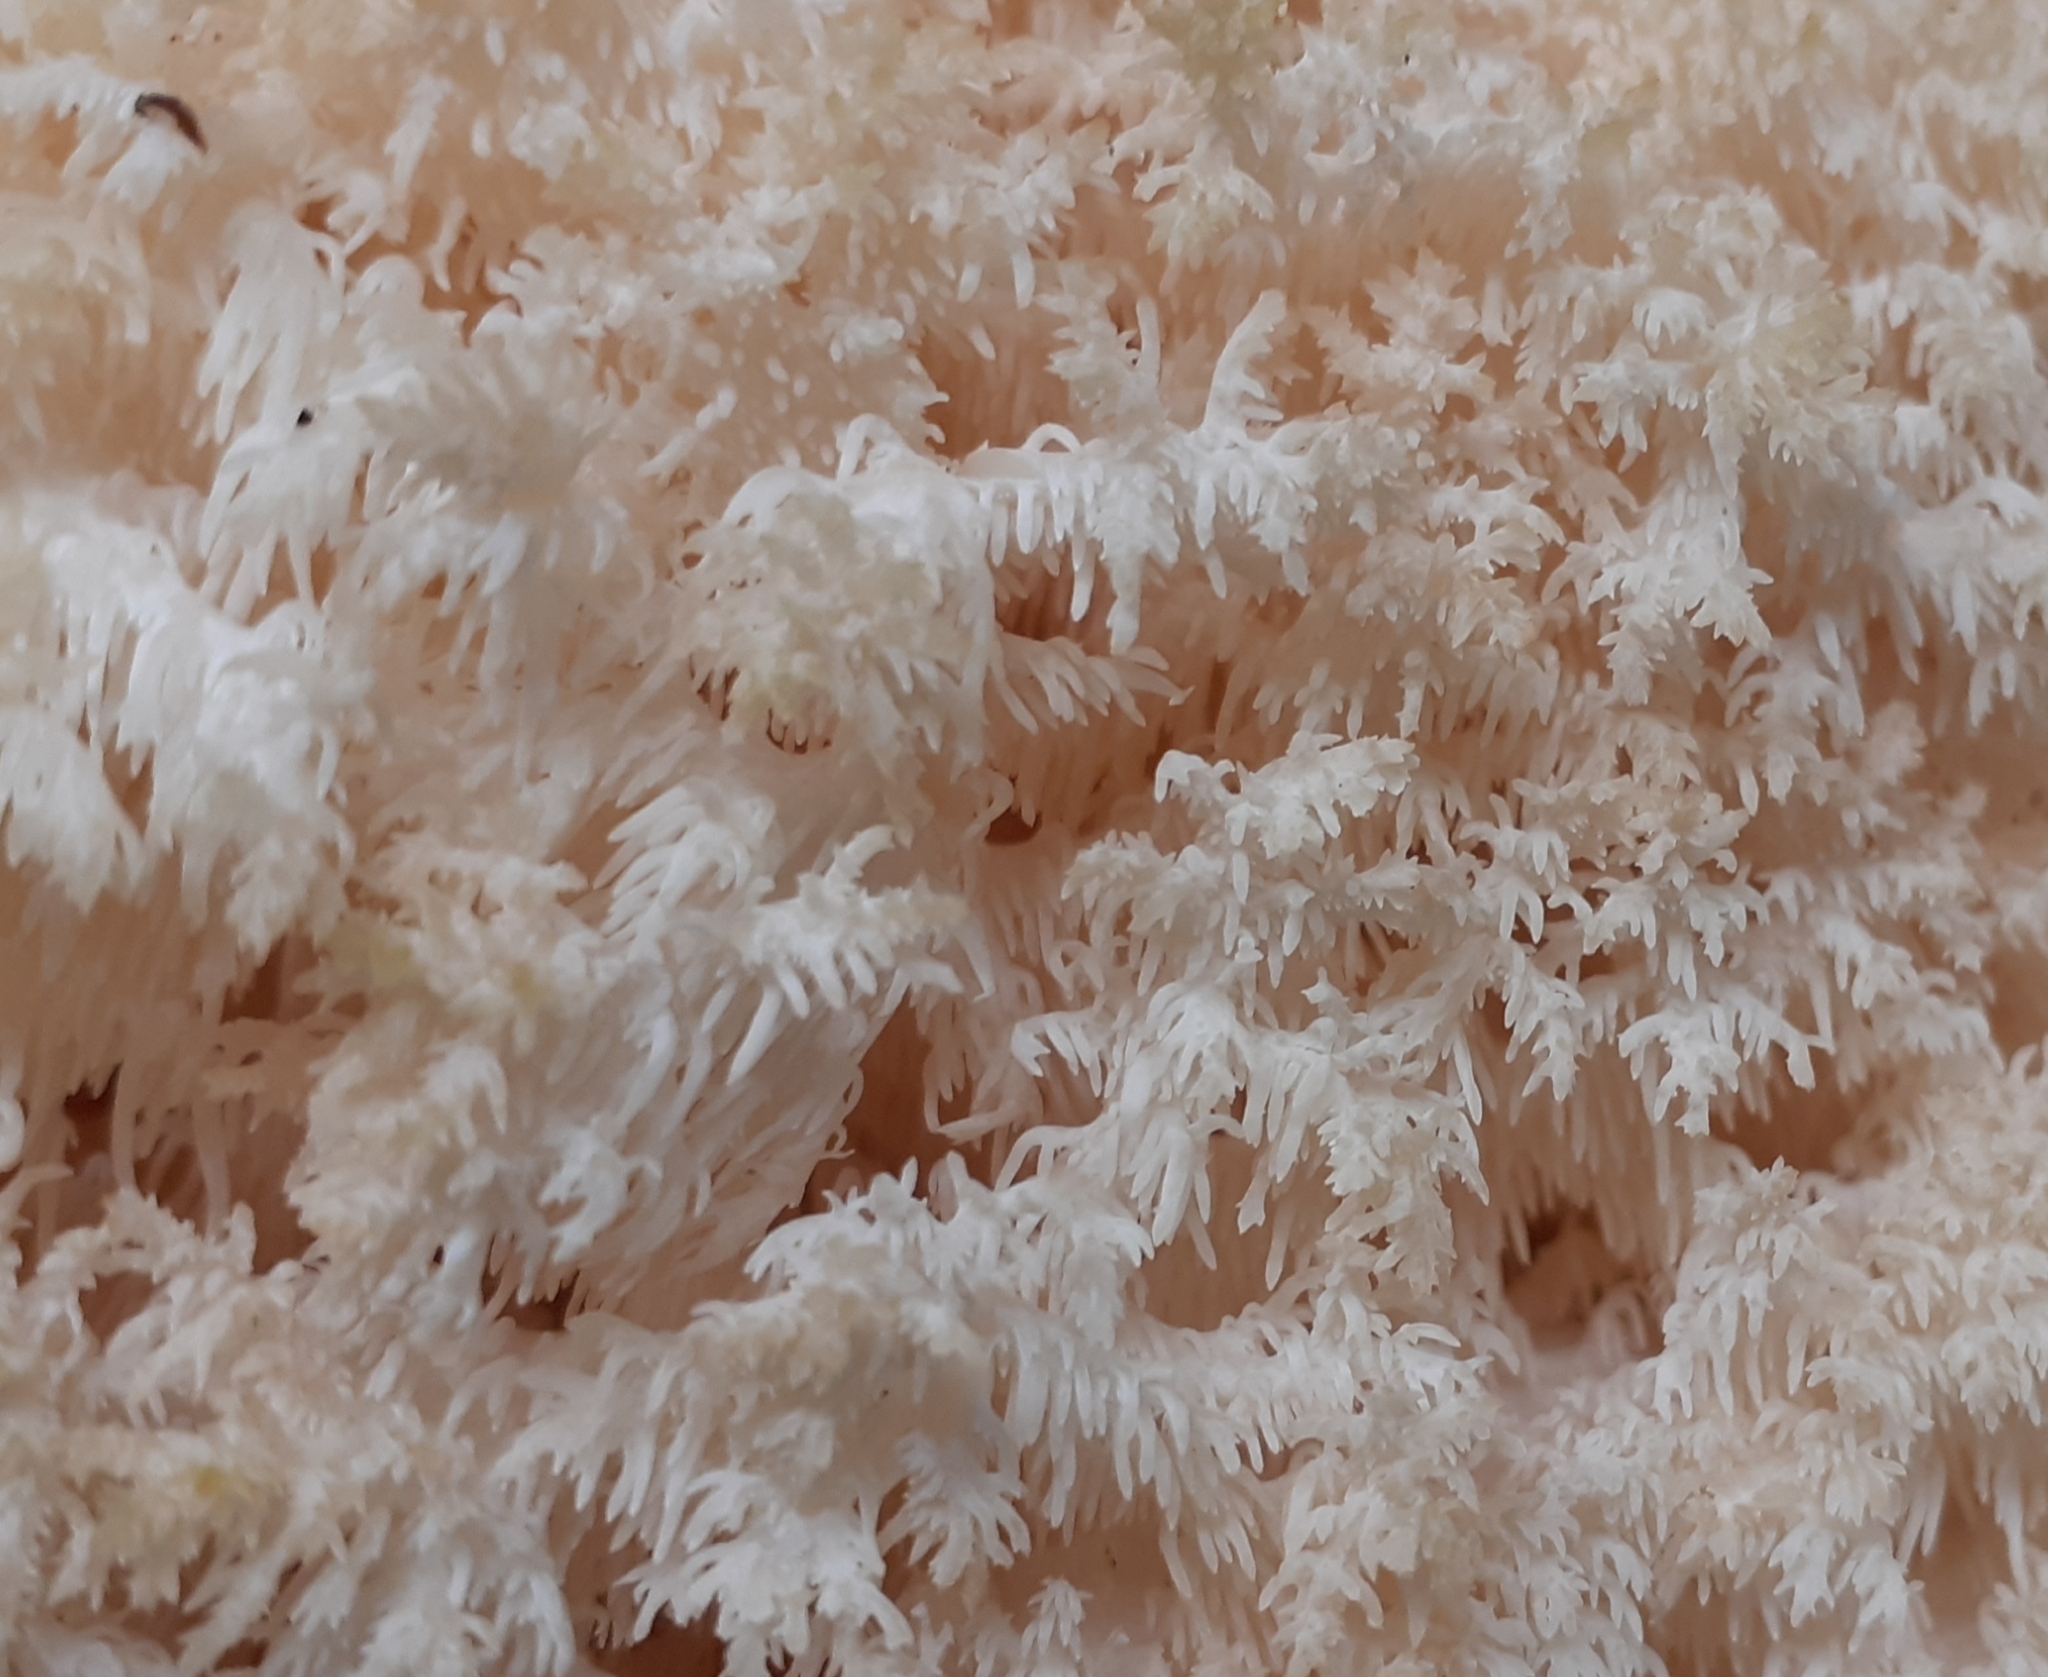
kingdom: Fungi
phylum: Basidiomycota
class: Agaricomycetes
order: Russulales
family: Hericiaceae
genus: Hericium
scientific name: Hericium coralloides
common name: Coral tooth
